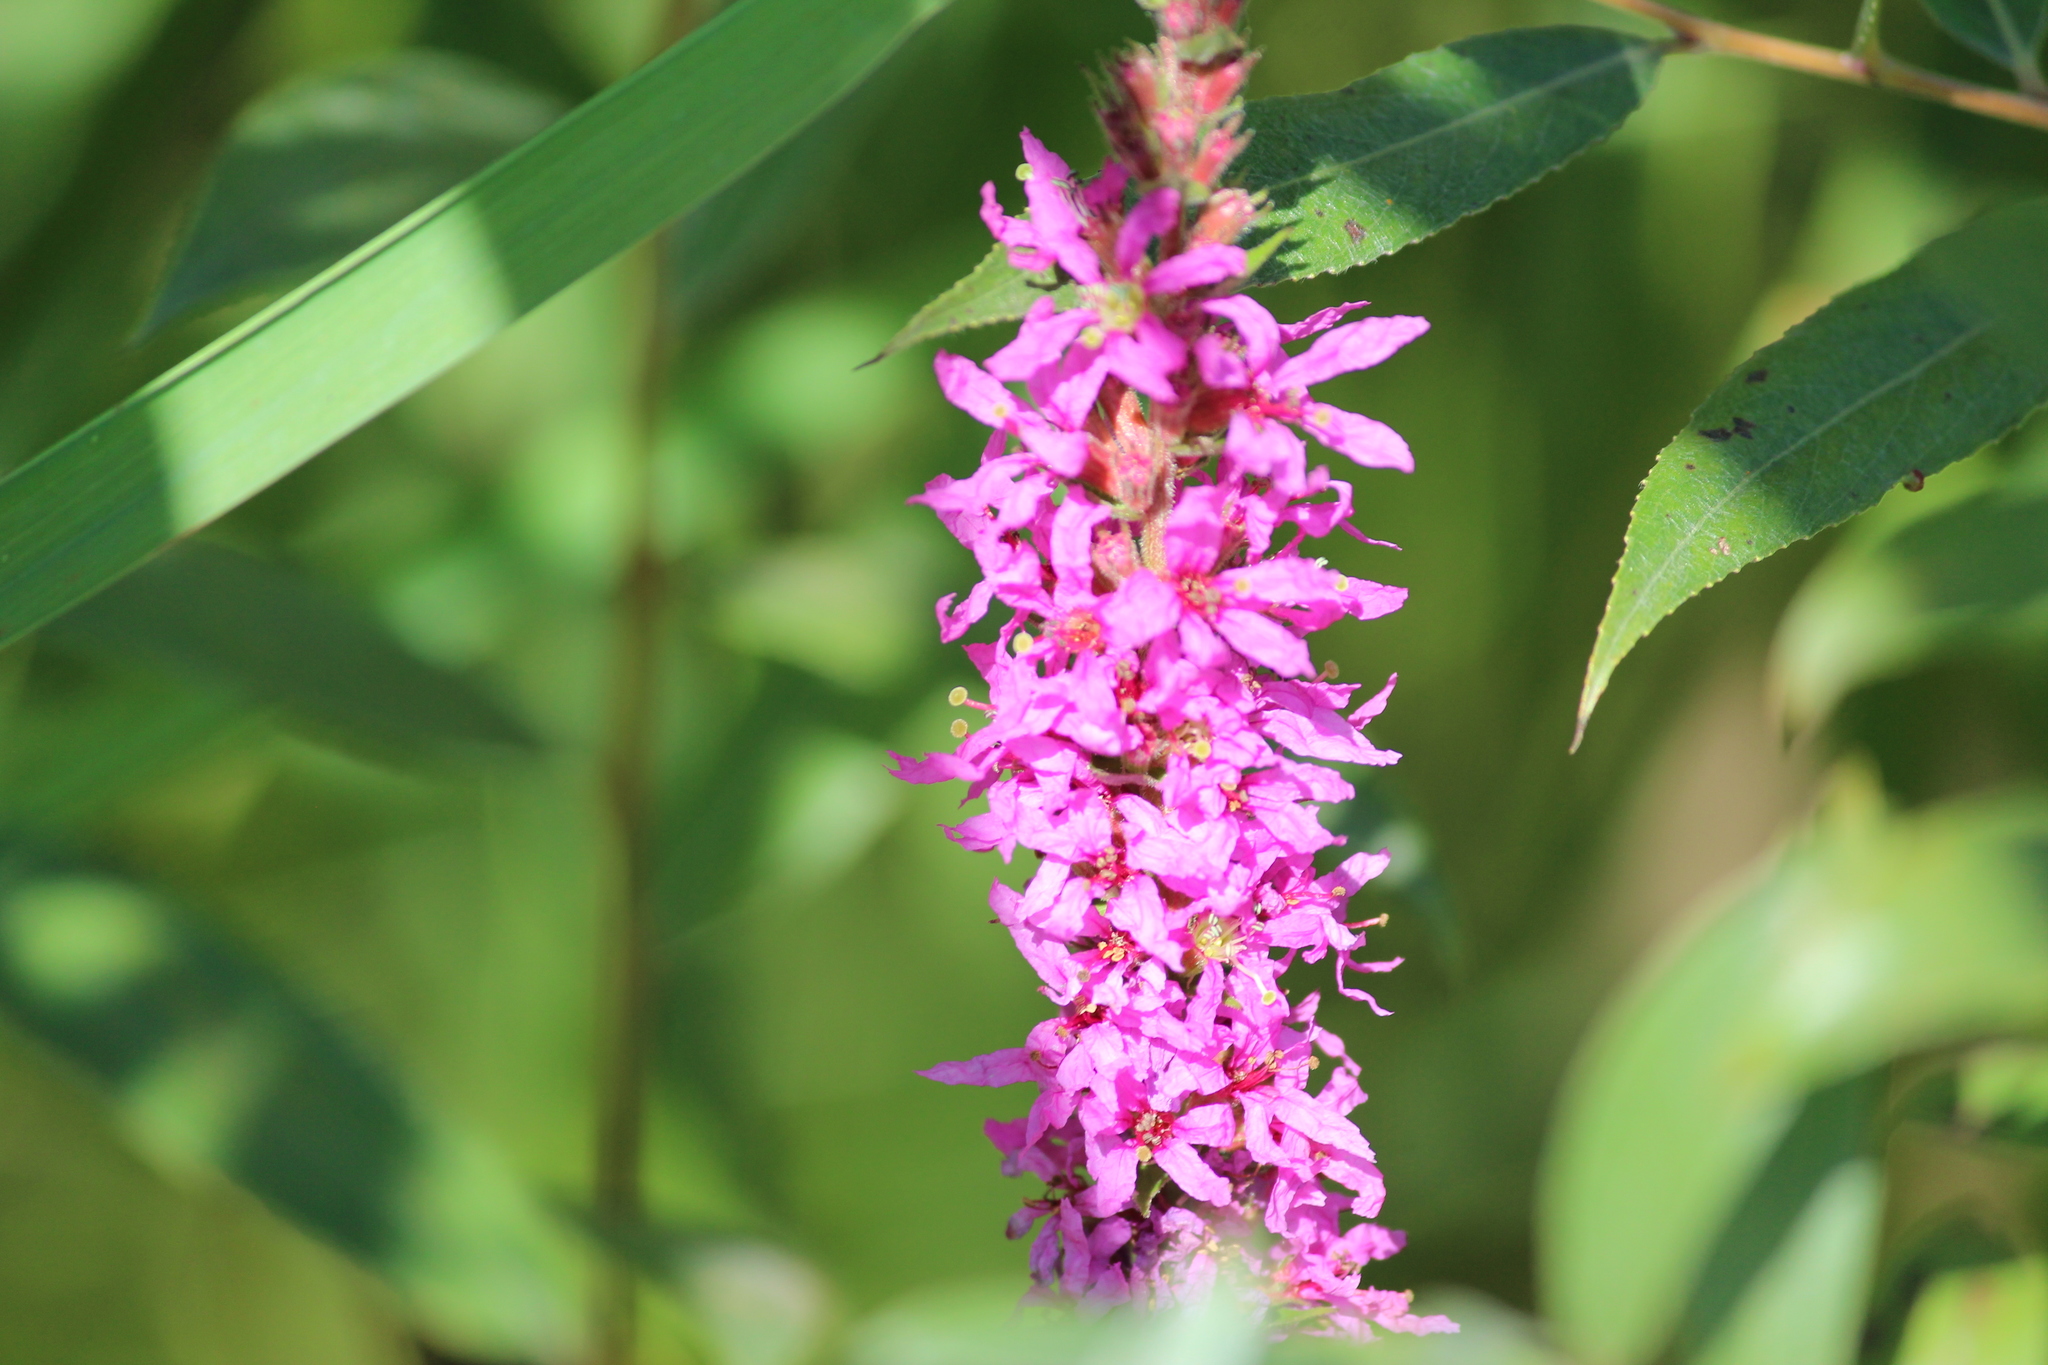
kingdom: Plantae
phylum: Tracheophyta
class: Magnoliopsida
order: Myrtales
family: Lythraceae
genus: Lythrum
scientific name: Lythrum salicaria
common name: Purple loosestrife
